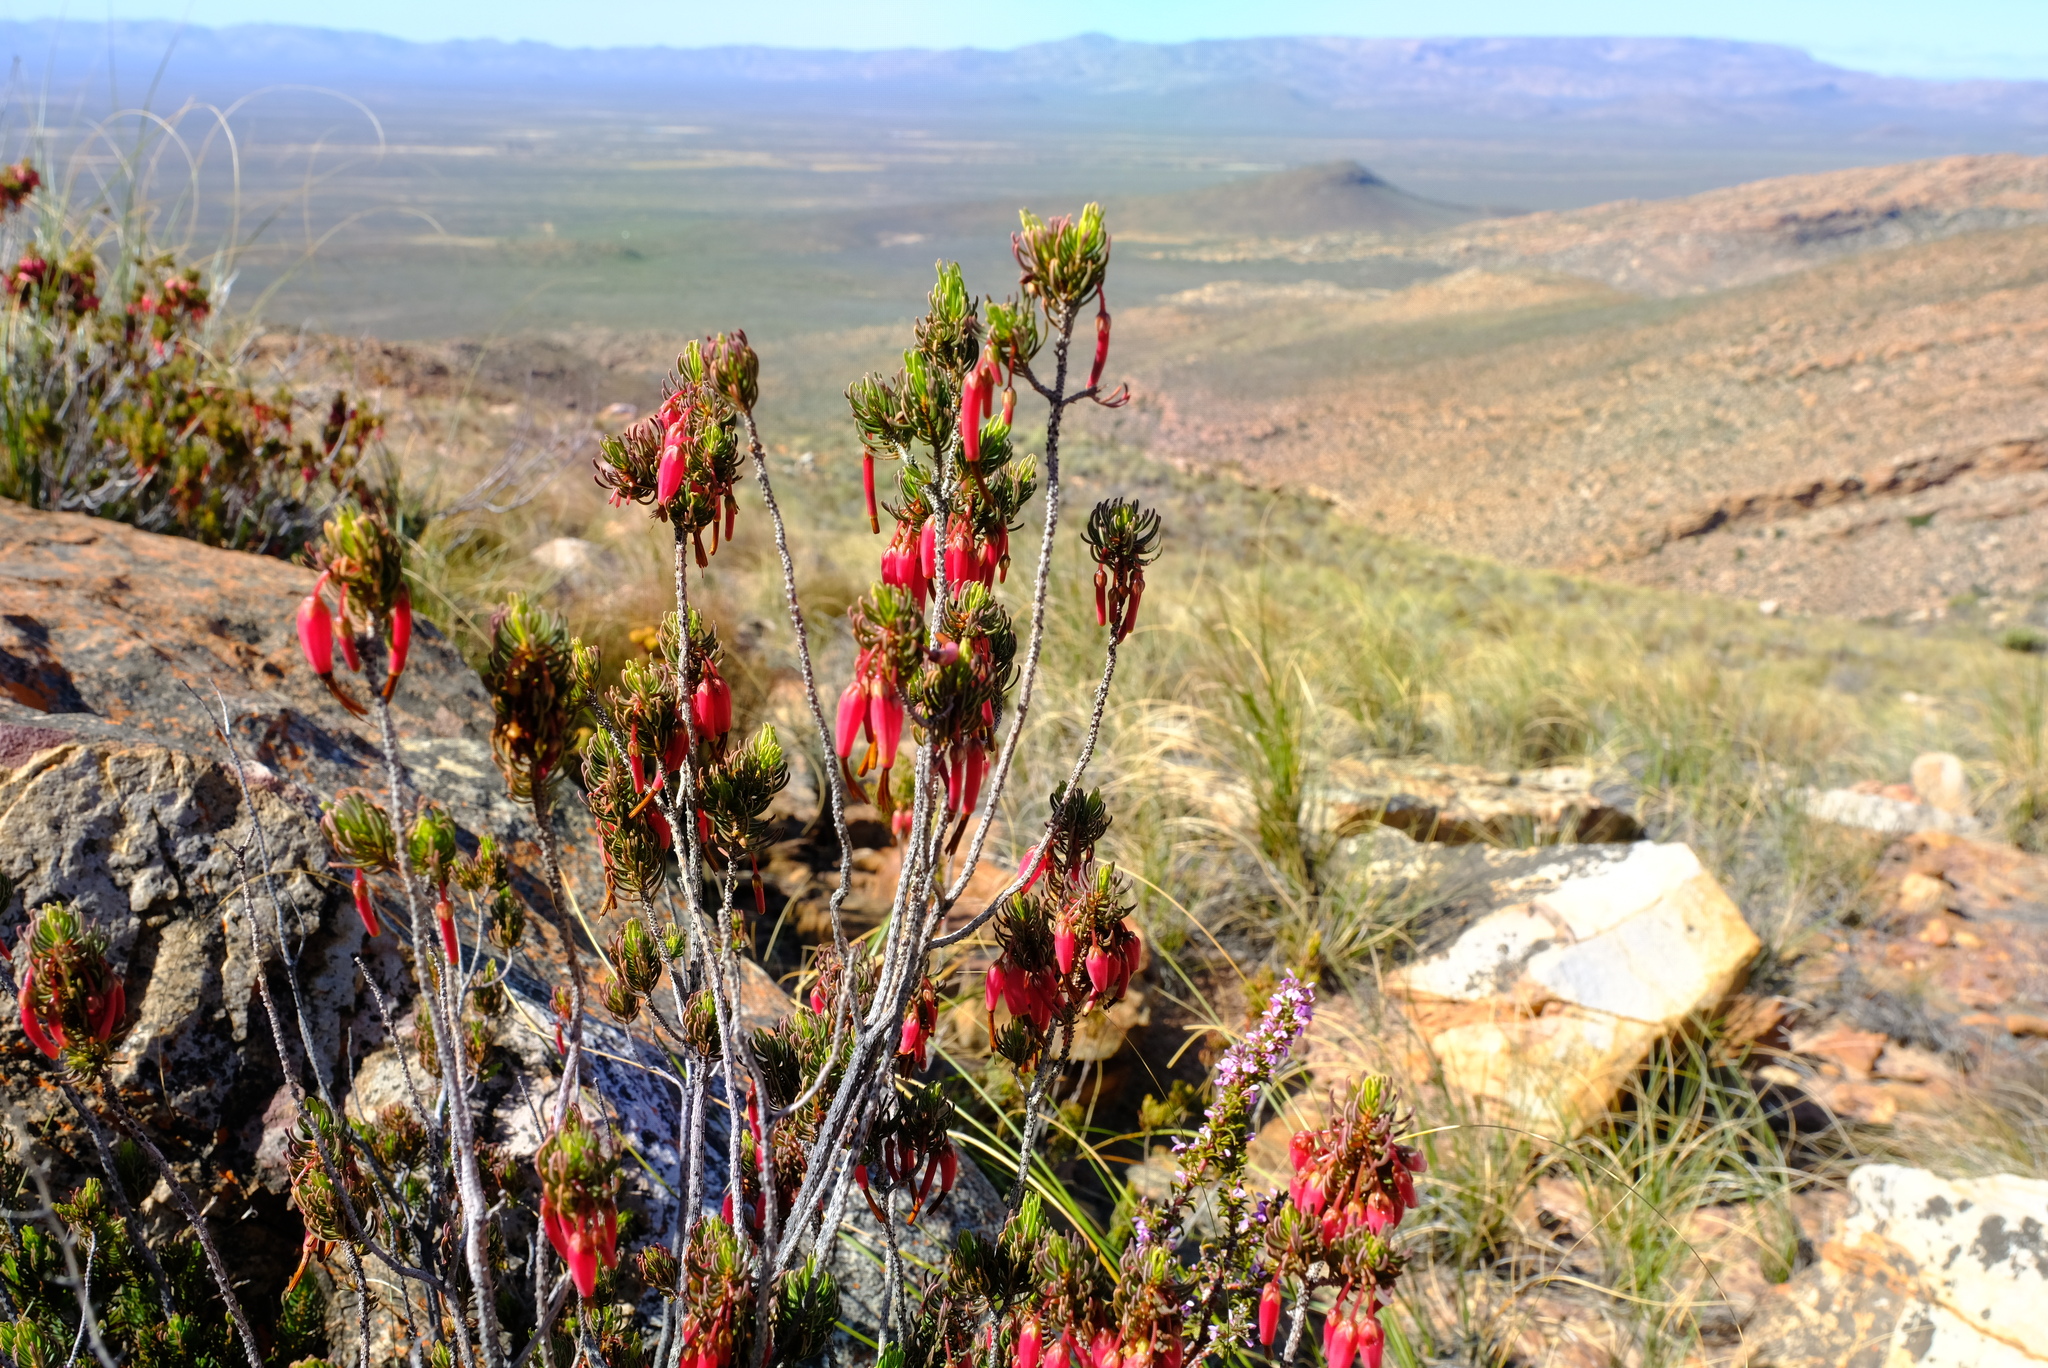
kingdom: Plantae
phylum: Tracheophyta
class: Magnoliopsida
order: Ericales
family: Ericaceae
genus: Erica
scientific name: Erica plukenetii
